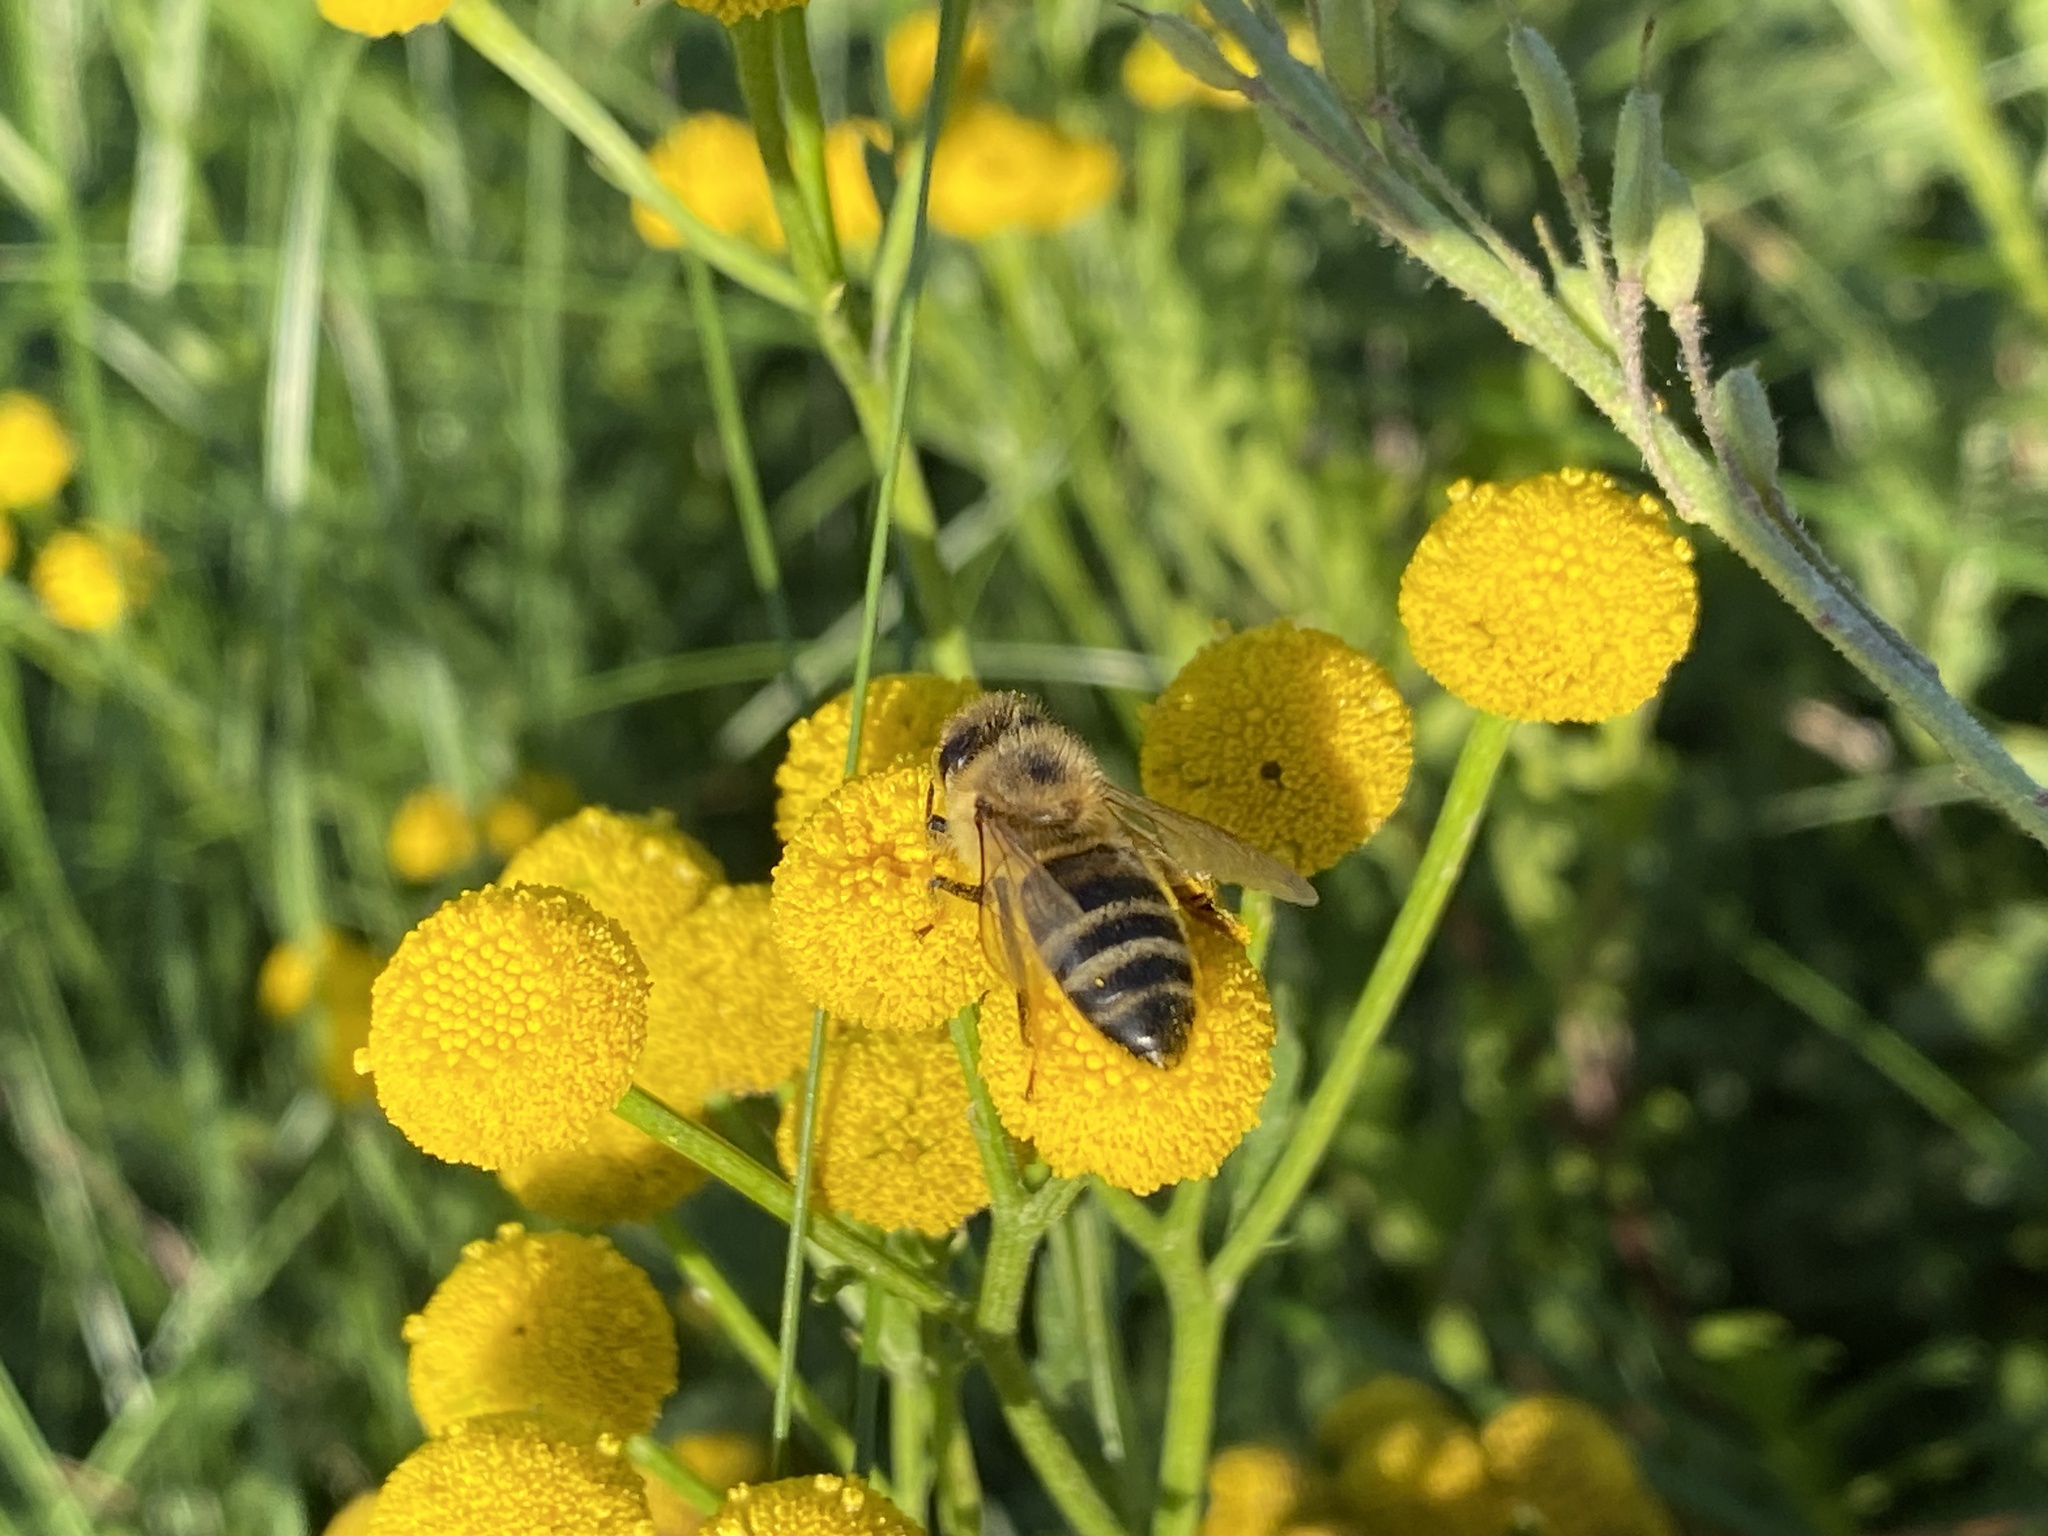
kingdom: Animalia
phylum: Arthropoda
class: Insecta
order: Hymenoptera
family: Apidae
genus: Apis
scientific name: Apis mellifera
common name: Honey bee
